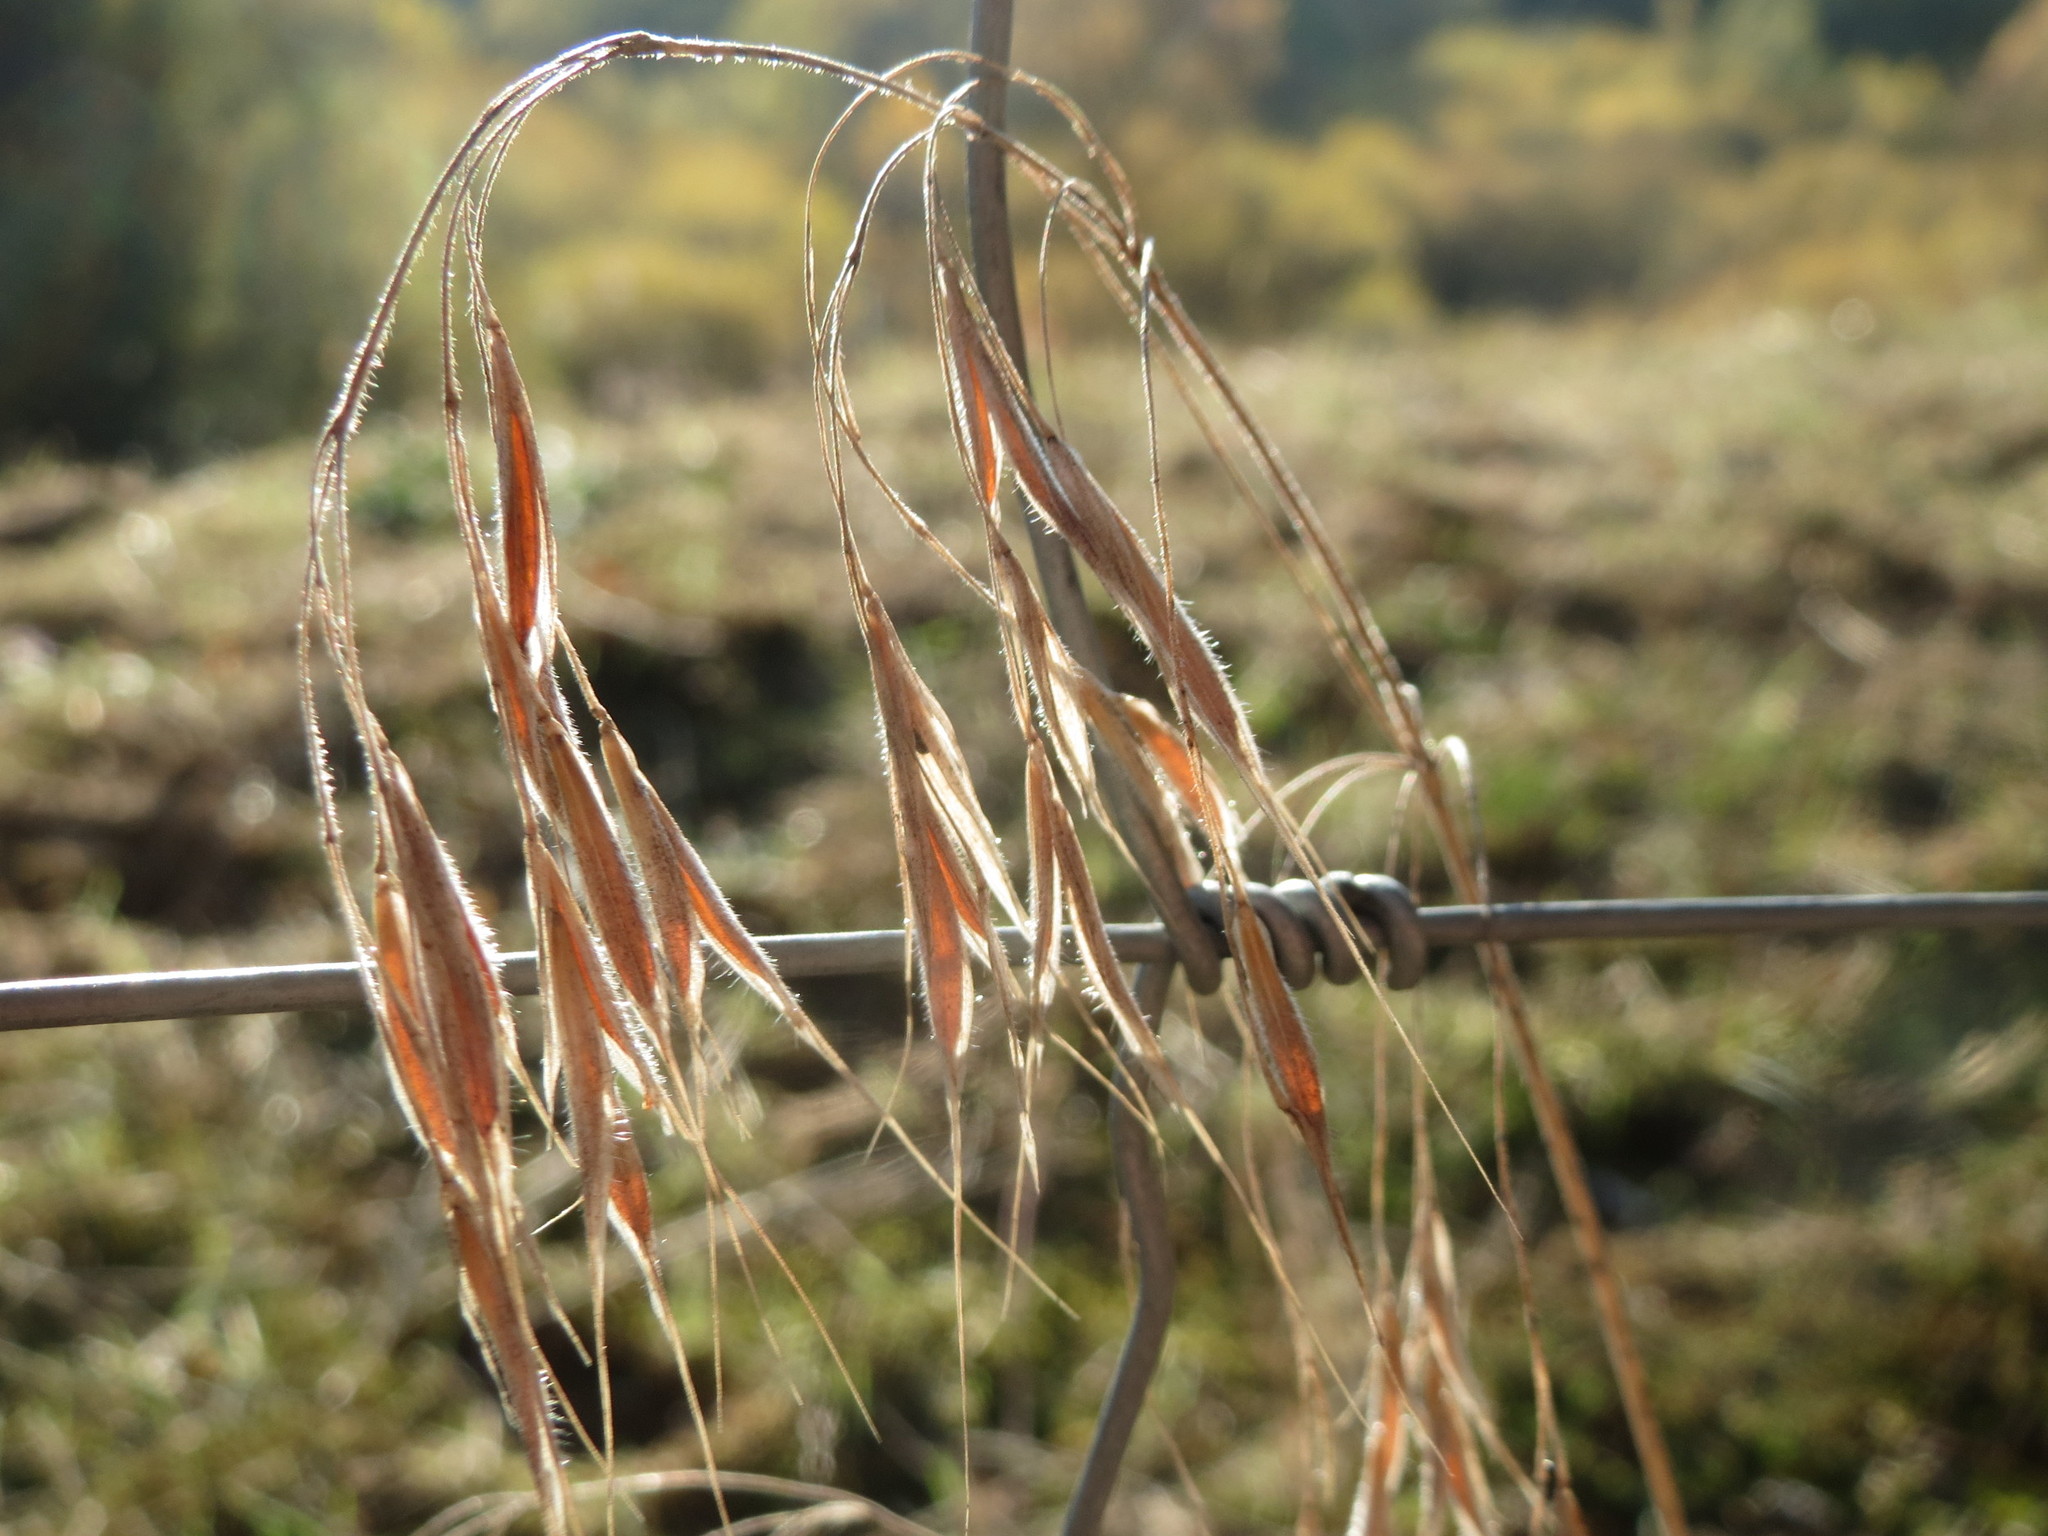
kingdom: Plantae
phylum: Tracheophyta
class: Liliopsida
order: Poales
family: Poaceae
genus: Bromus
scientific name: Bromus tectorum
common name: Cheatgrass
